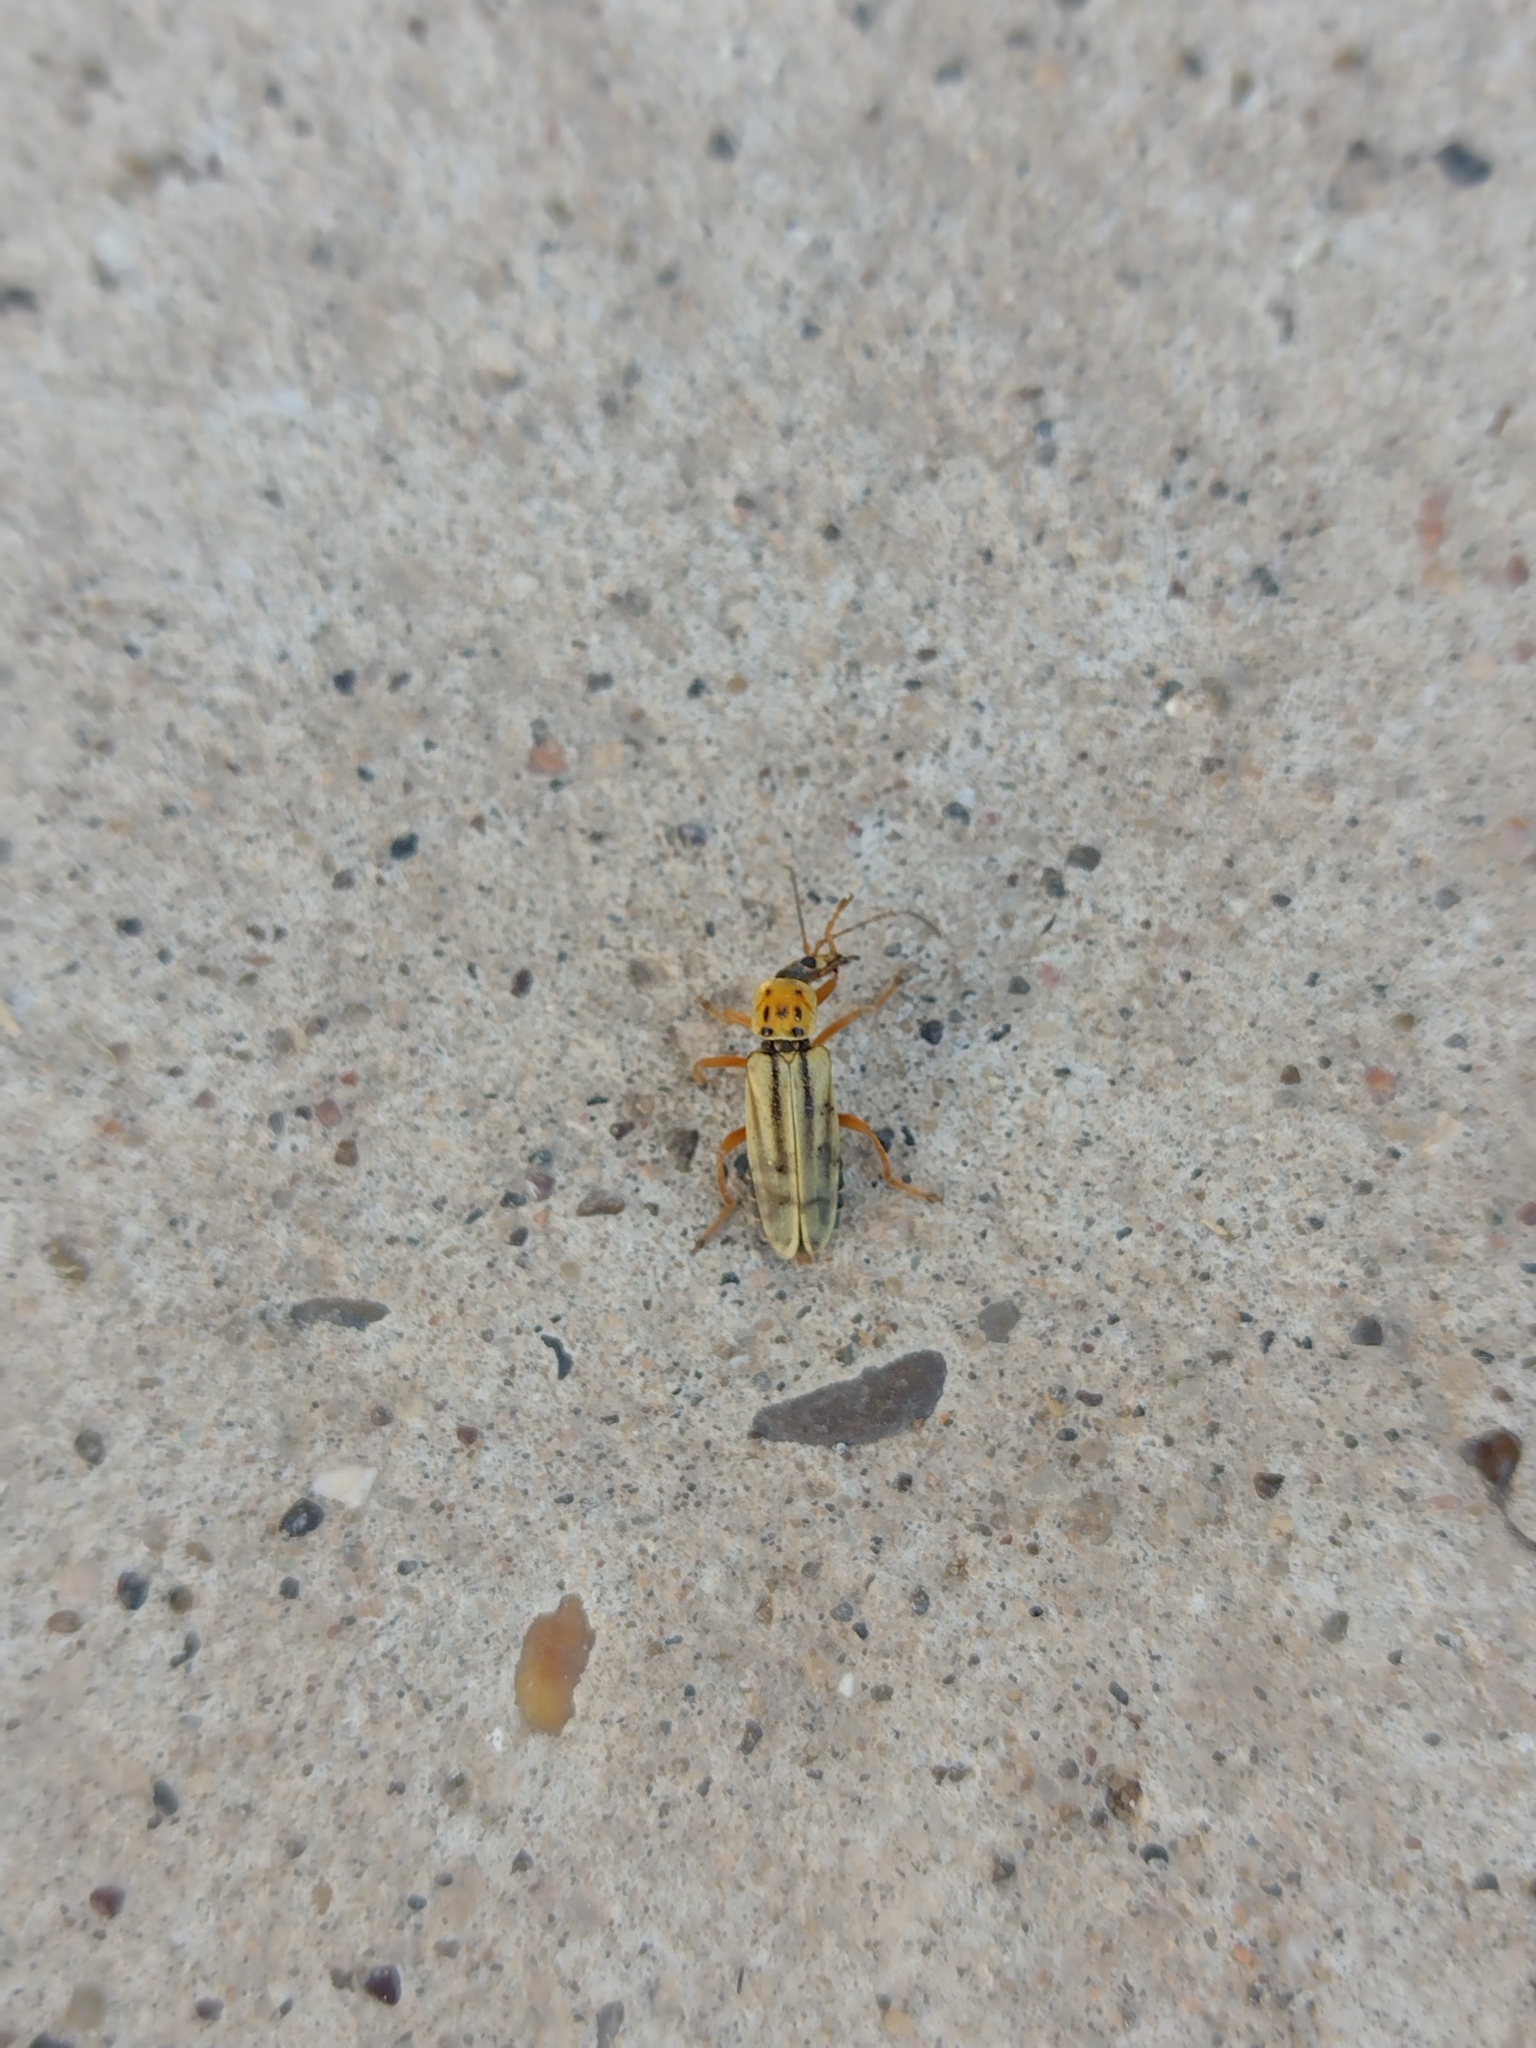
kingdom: Animalia
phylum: Arthropoda
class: Insecta
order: Coleoptera
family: Cantharidae
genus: Chauliognathus
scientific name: Chauliognathus
